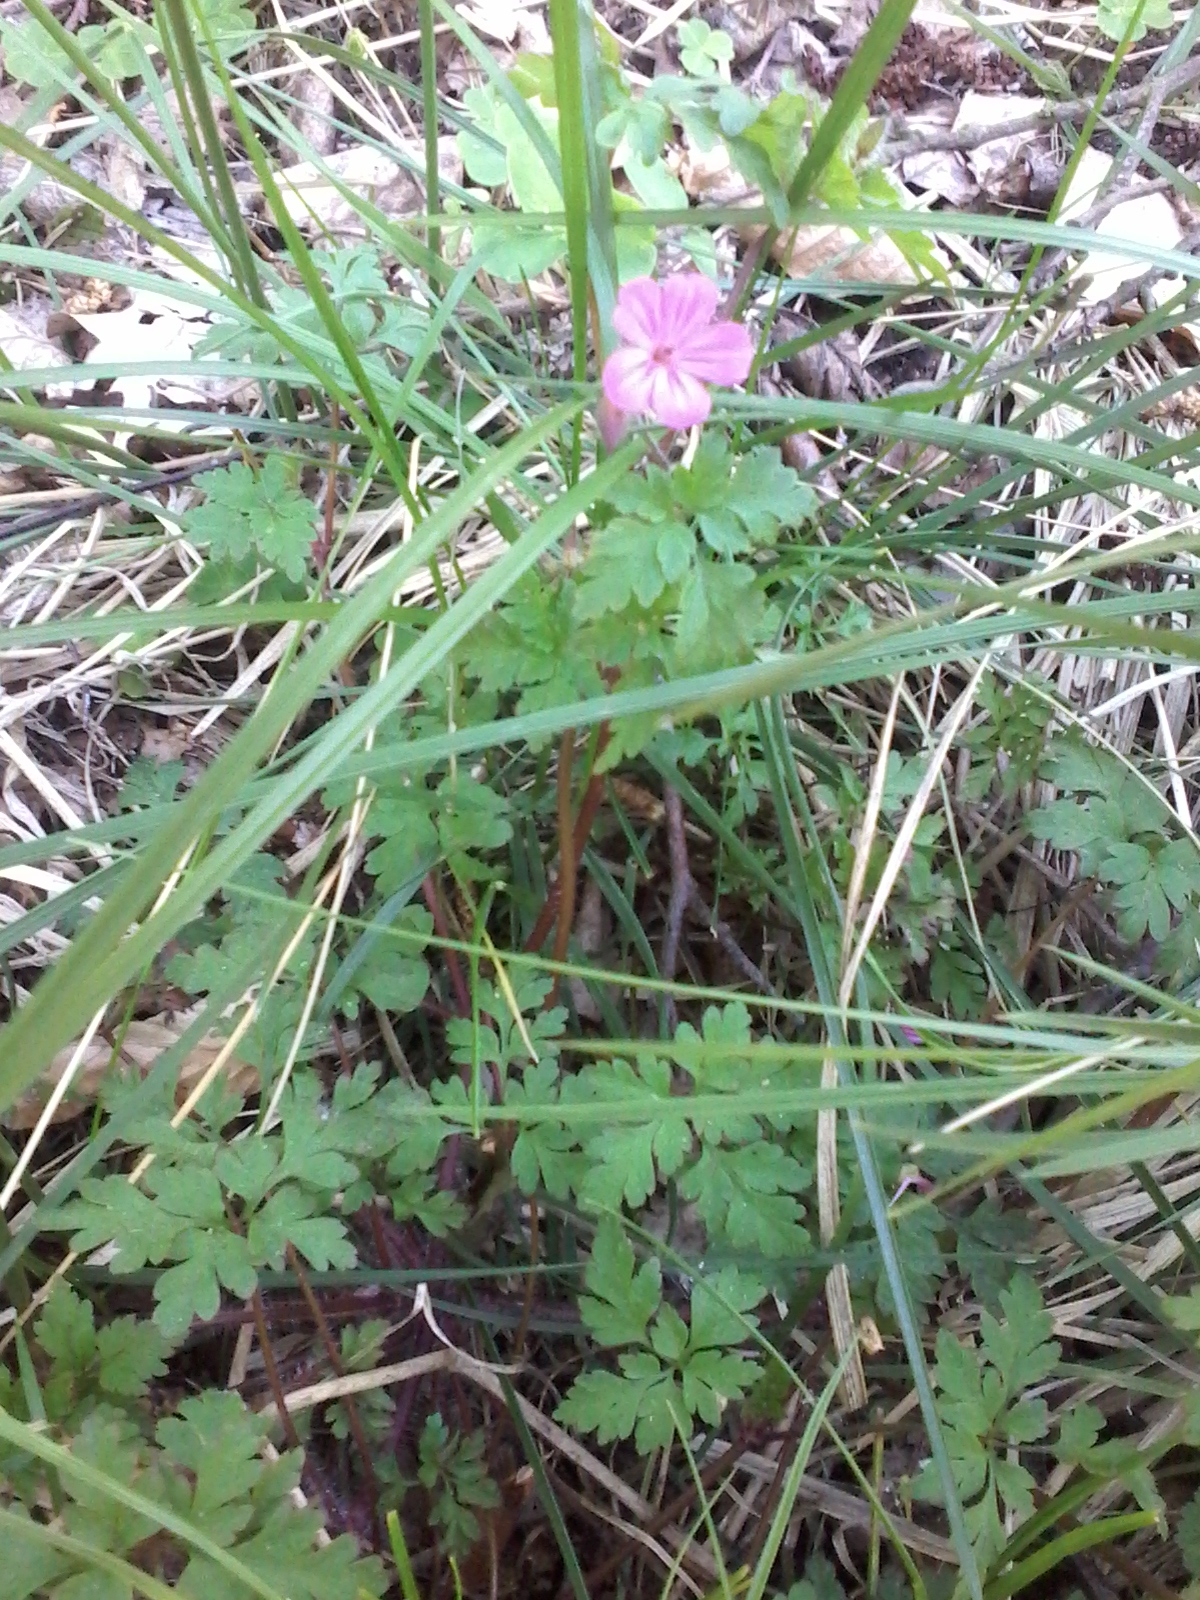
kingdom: Plantae
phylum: Tracheophyta
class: Magnoliopsida
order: Geraniales
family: Geraniaceae
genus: Geranium
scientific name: Geranium robertianum
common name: Herb-robert
